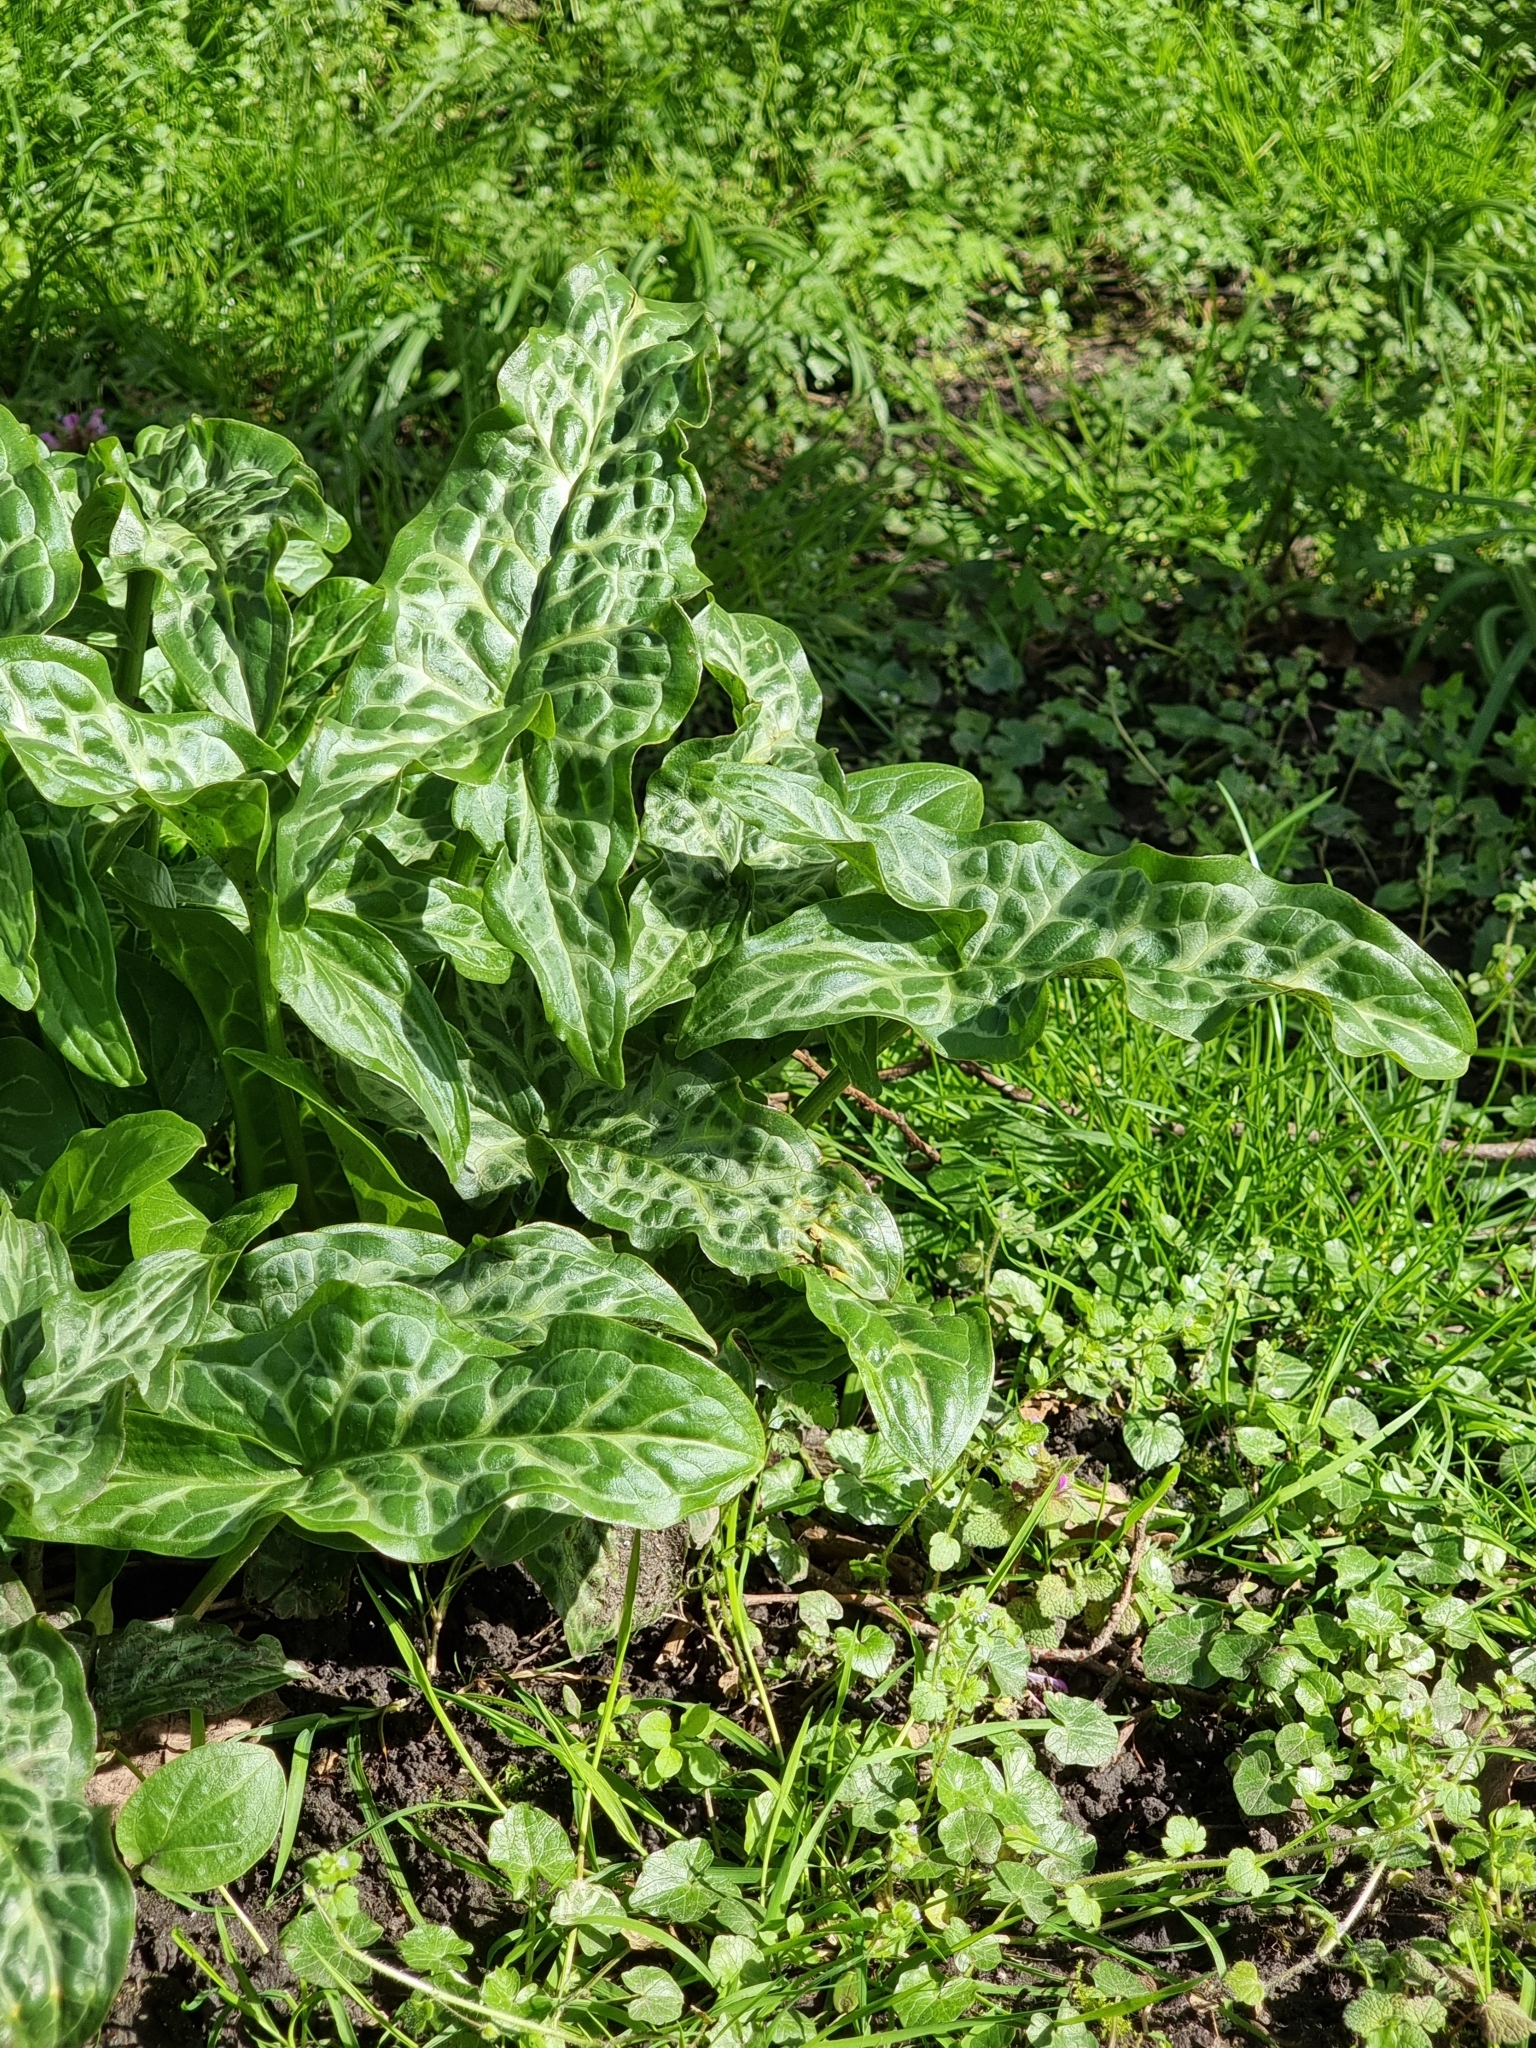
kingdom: Plantae
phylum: Tracheophyta
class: Liliopsida
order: Alismatales
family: Araceae
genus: Arum
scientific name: Arum italicum
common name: Italian lords-and-ladies
